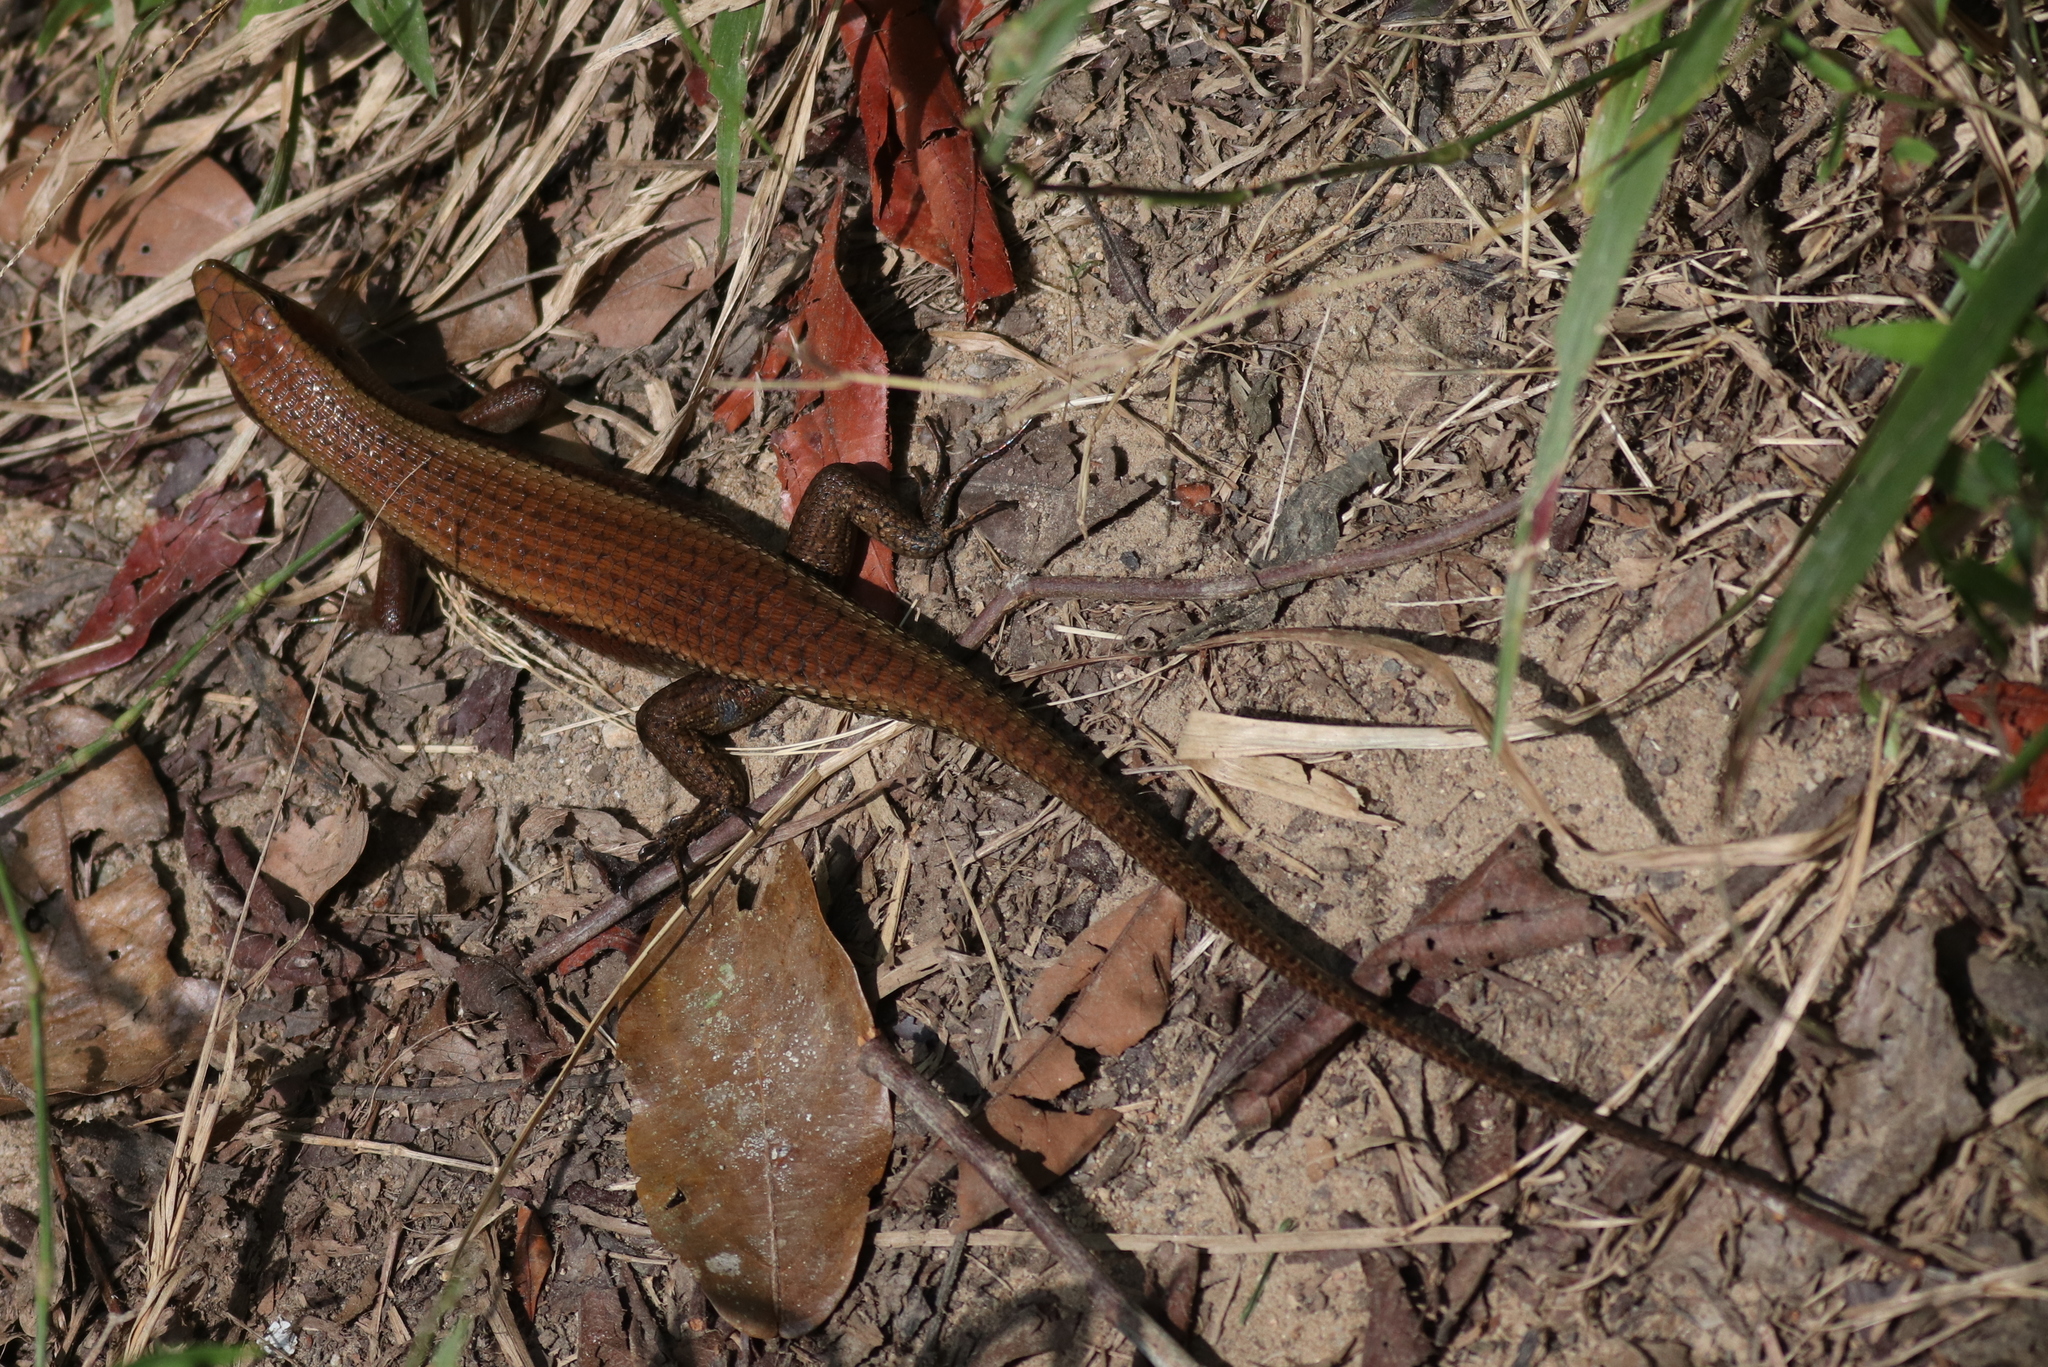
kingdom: Animalia
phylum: Chordata
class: Squamata
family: Scincidae
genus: Eutropis
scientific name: Eutropis multifasciata
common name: Common mabuya
